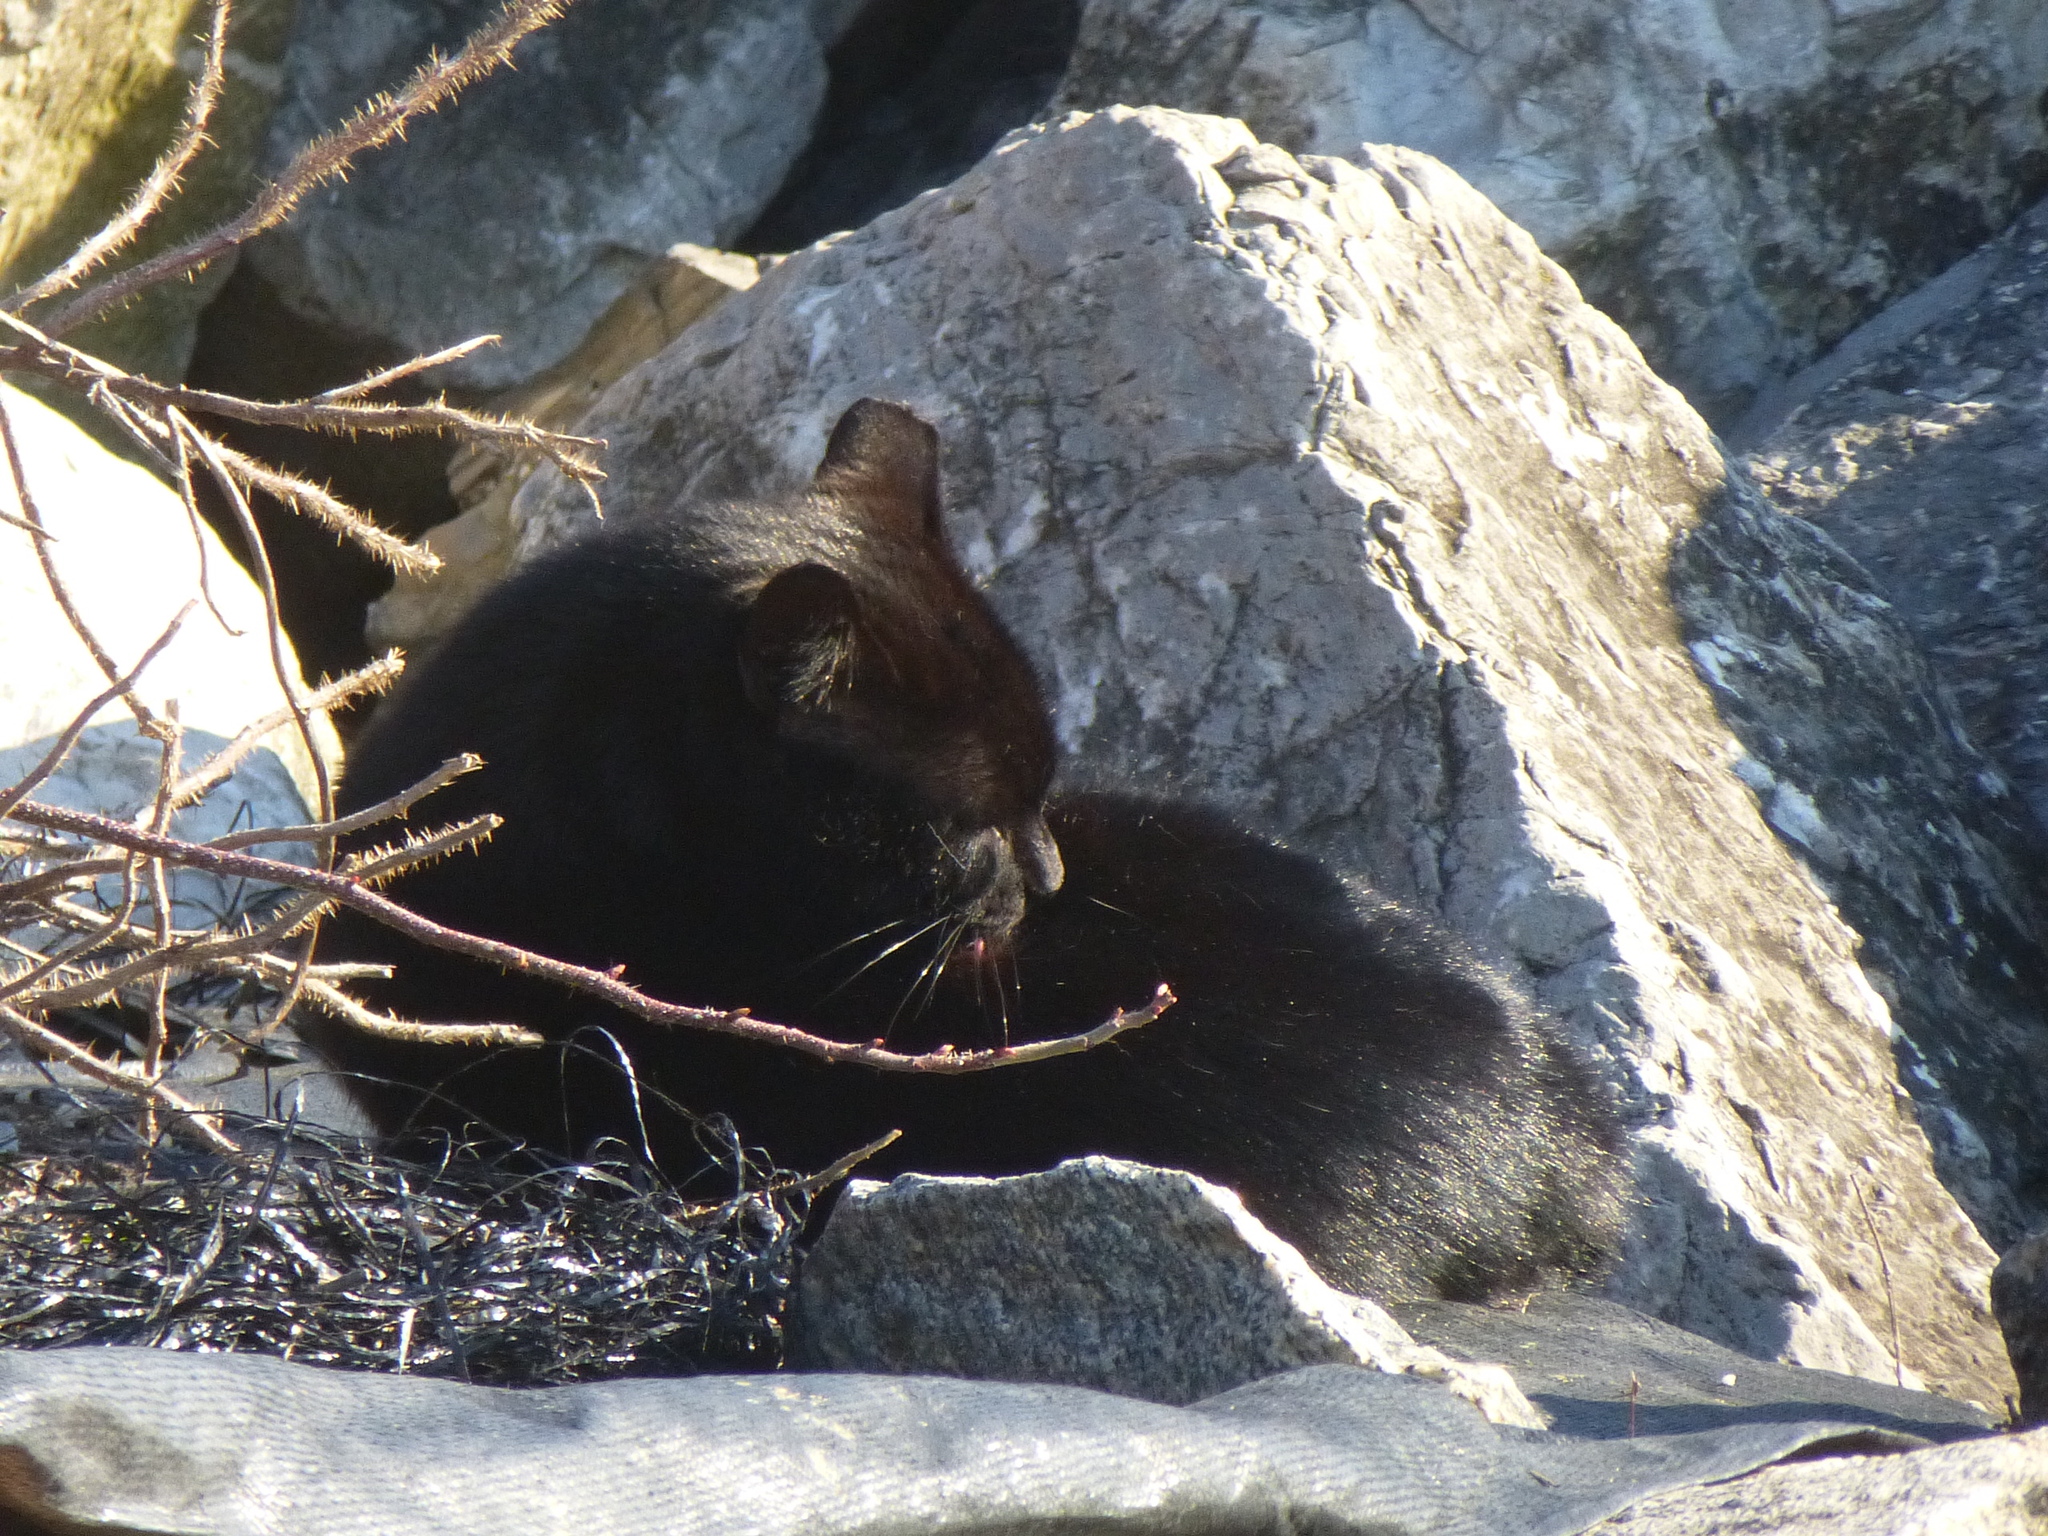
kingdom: Animalia
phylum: Chordata
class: Mammalia
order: Carnivora
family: Felidae
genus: Felis
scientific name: Felis catus
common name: Domestic cat
